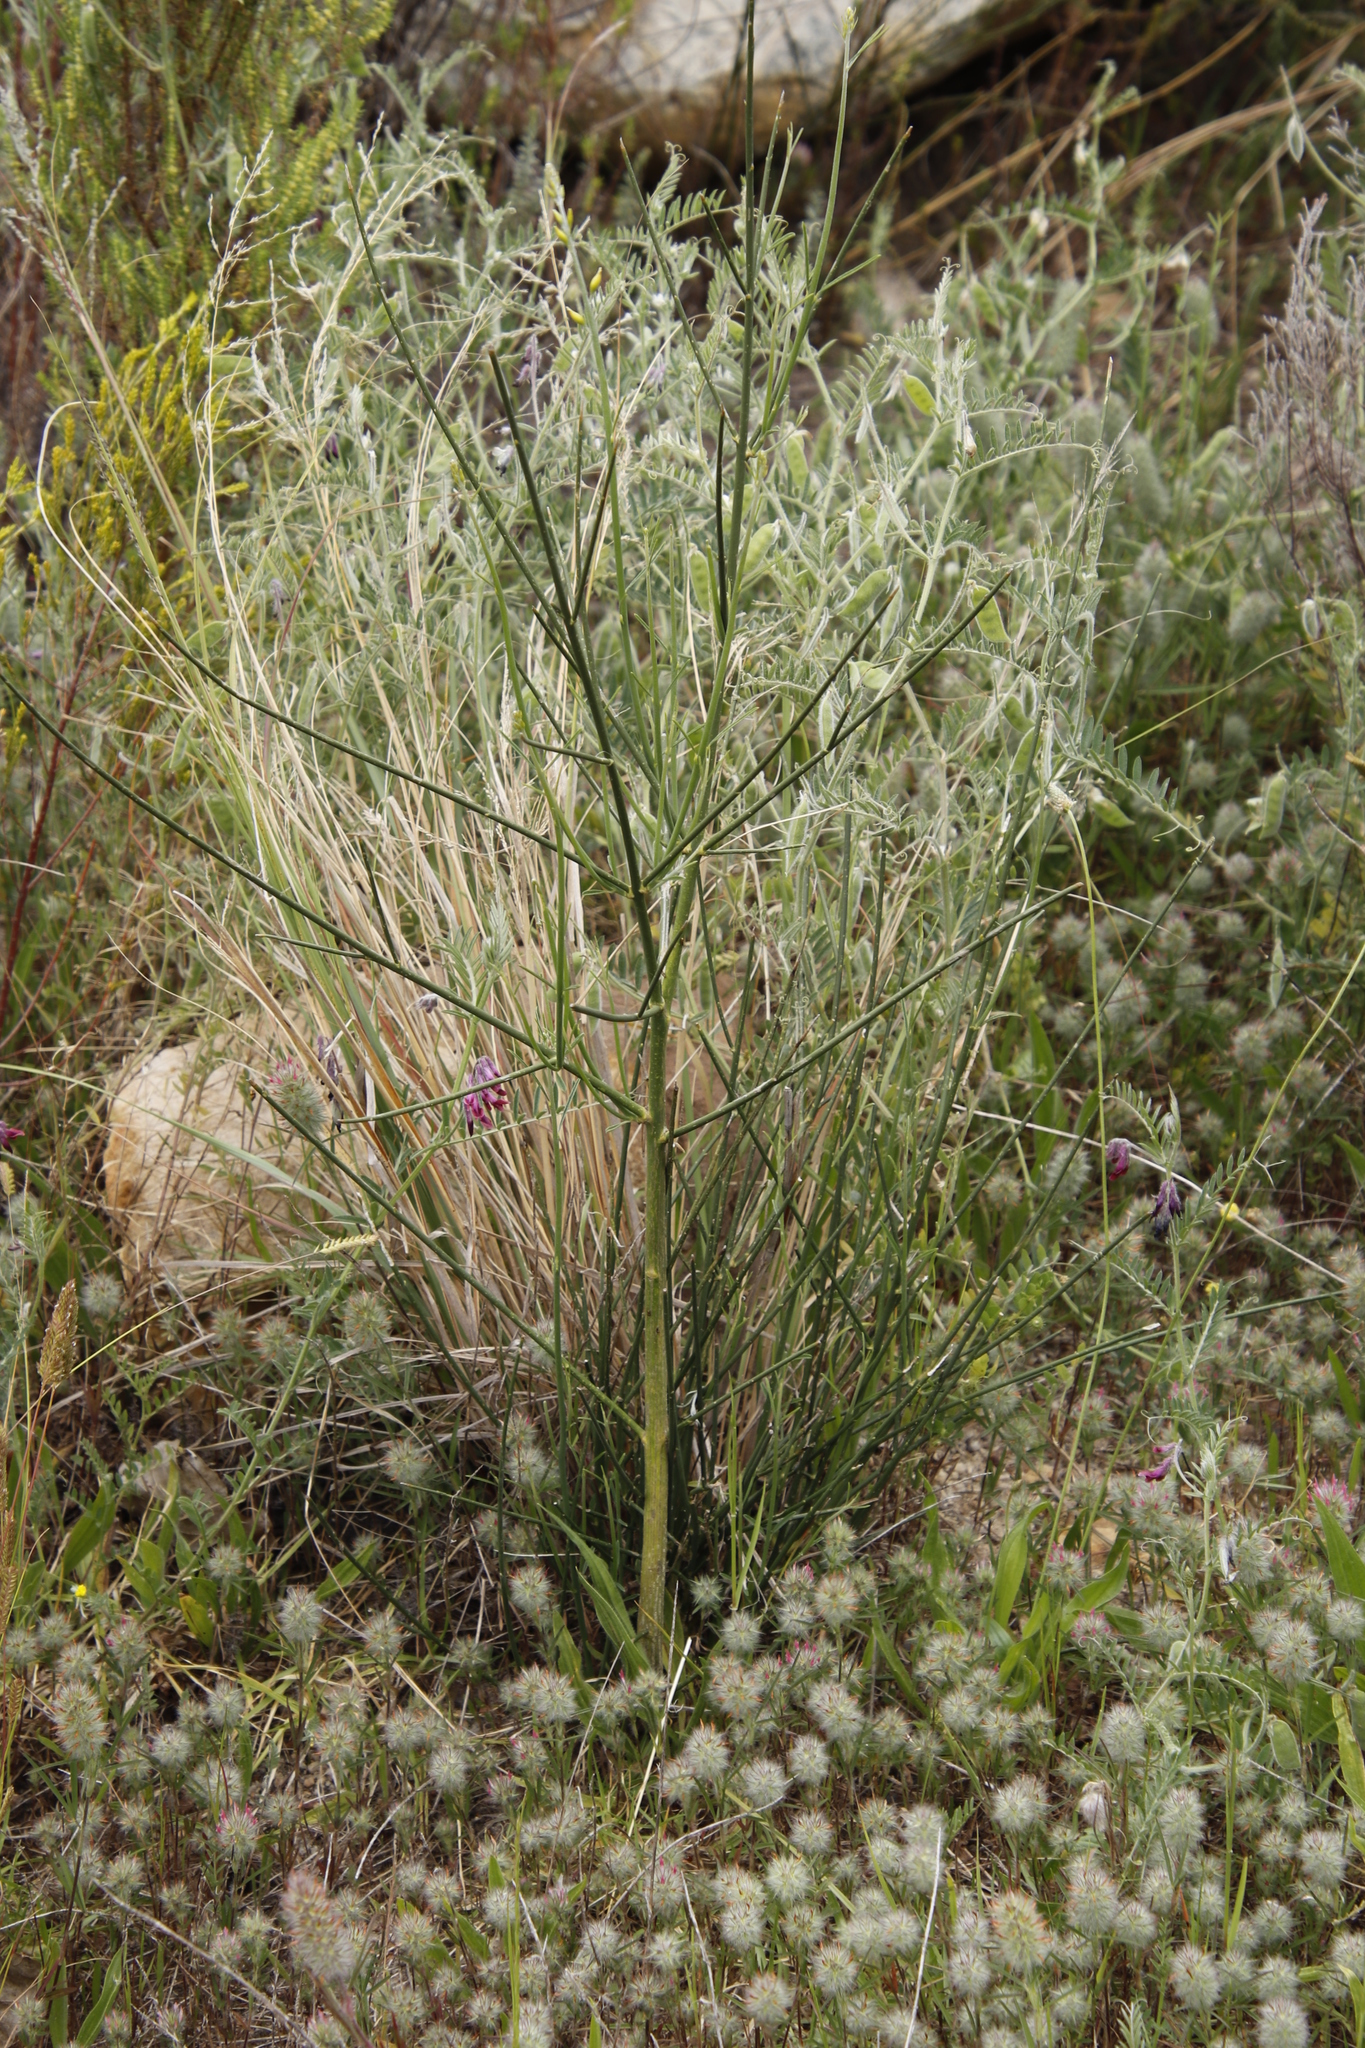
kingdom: Plantae
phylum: Tracheophyta
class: Magnoliopsida
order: Fabales
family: Fabaceae
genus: Spartium
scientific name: Spartium junceum
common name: Spanish broom
